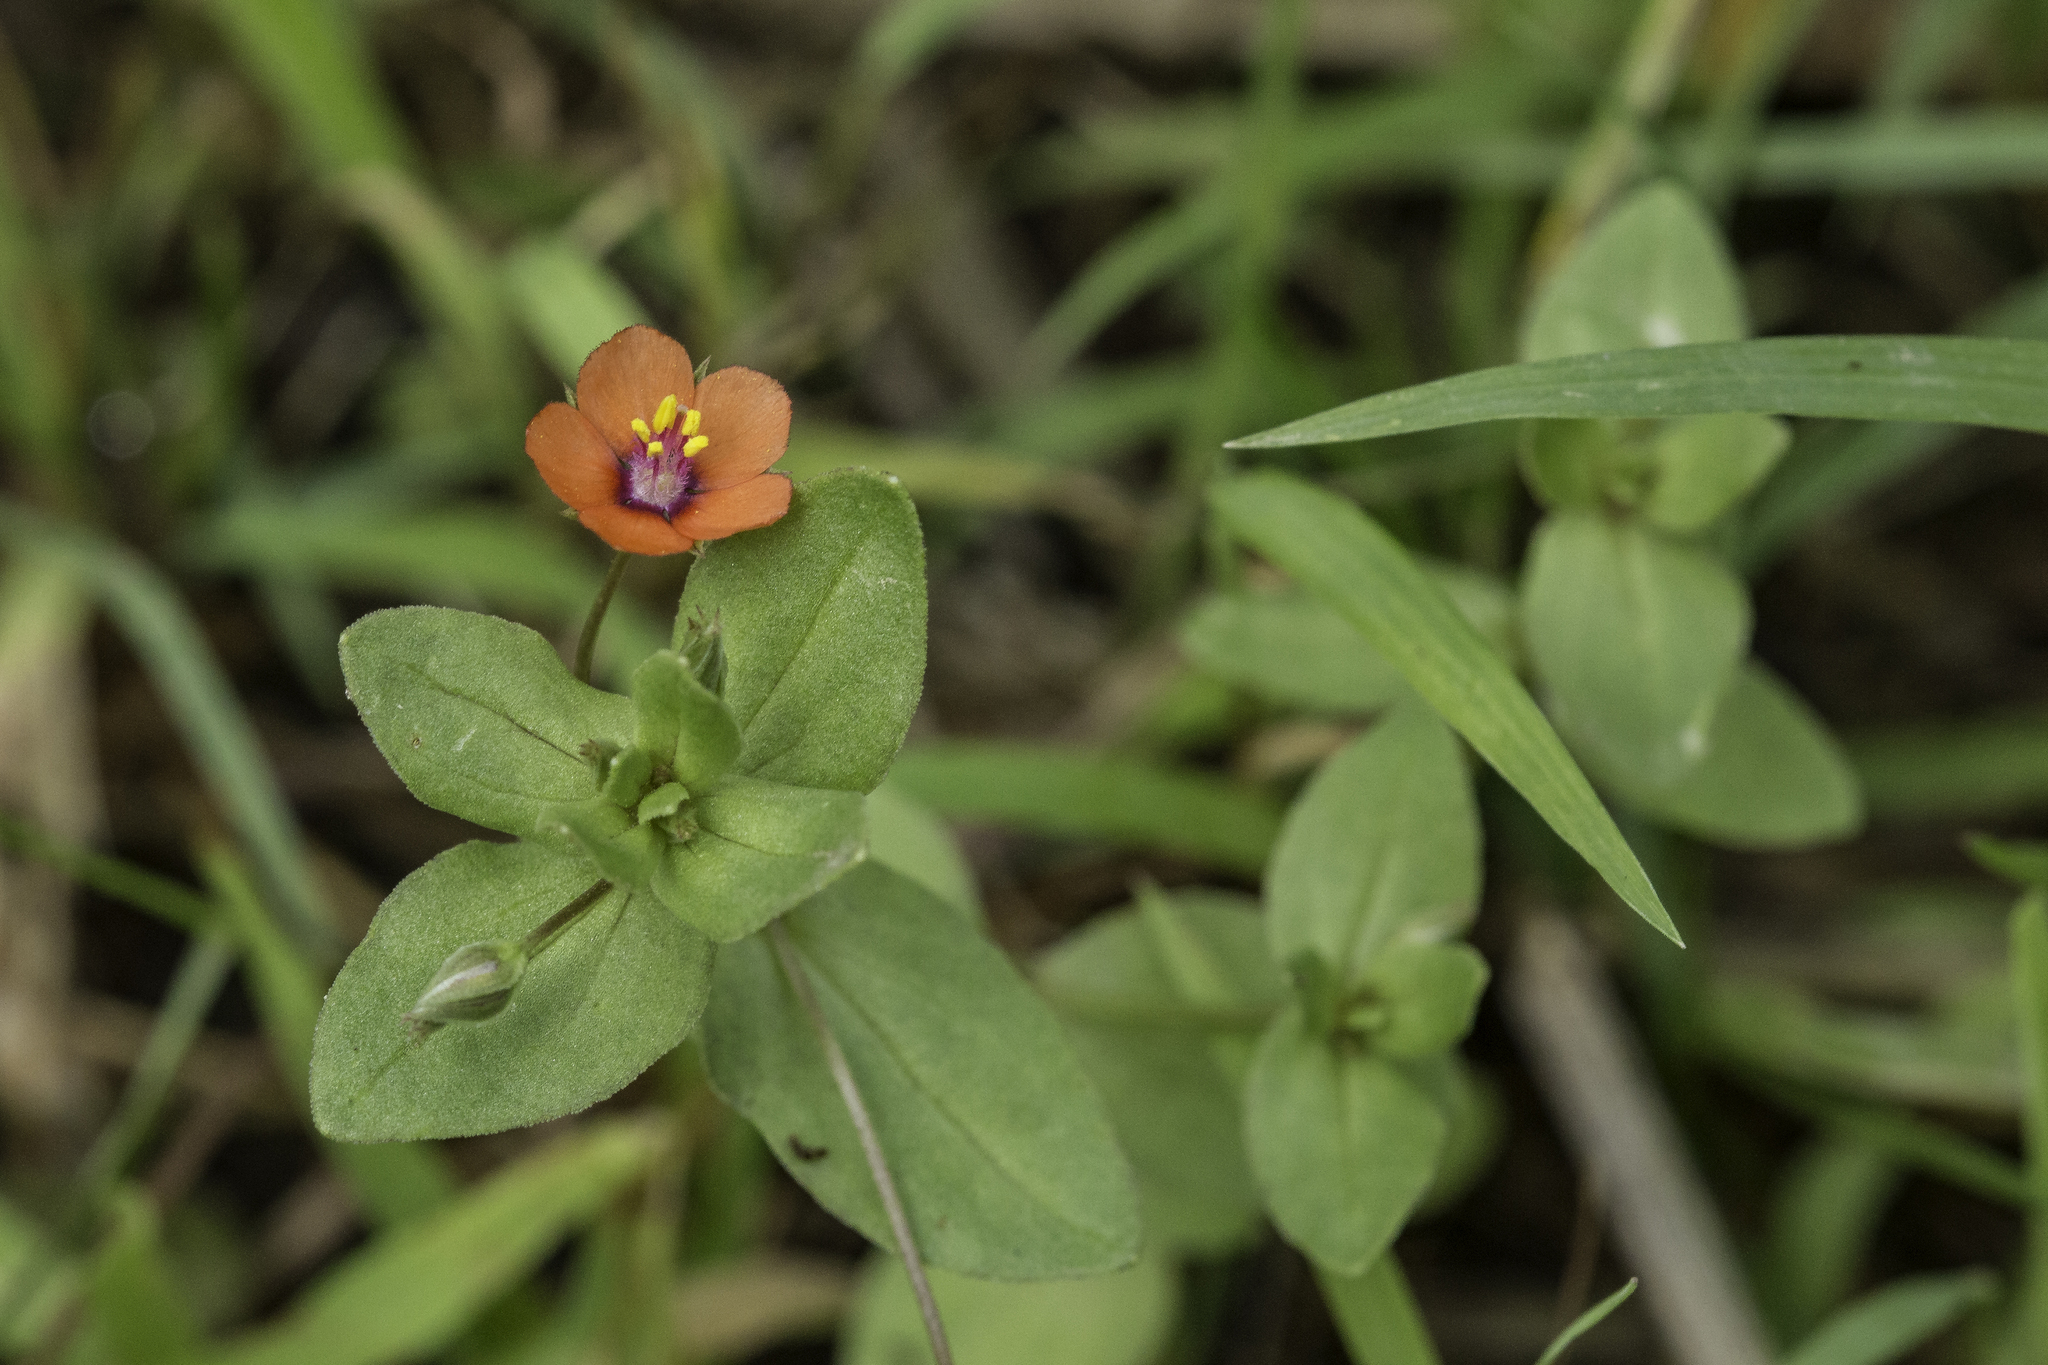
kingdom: Plantae
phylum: Tracheophyta
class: Magnoliopsida
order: Ericales
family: Primulaceae
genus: Lysimachia
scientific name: Lysimachia arvensis
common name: Scarlet pimpernel
